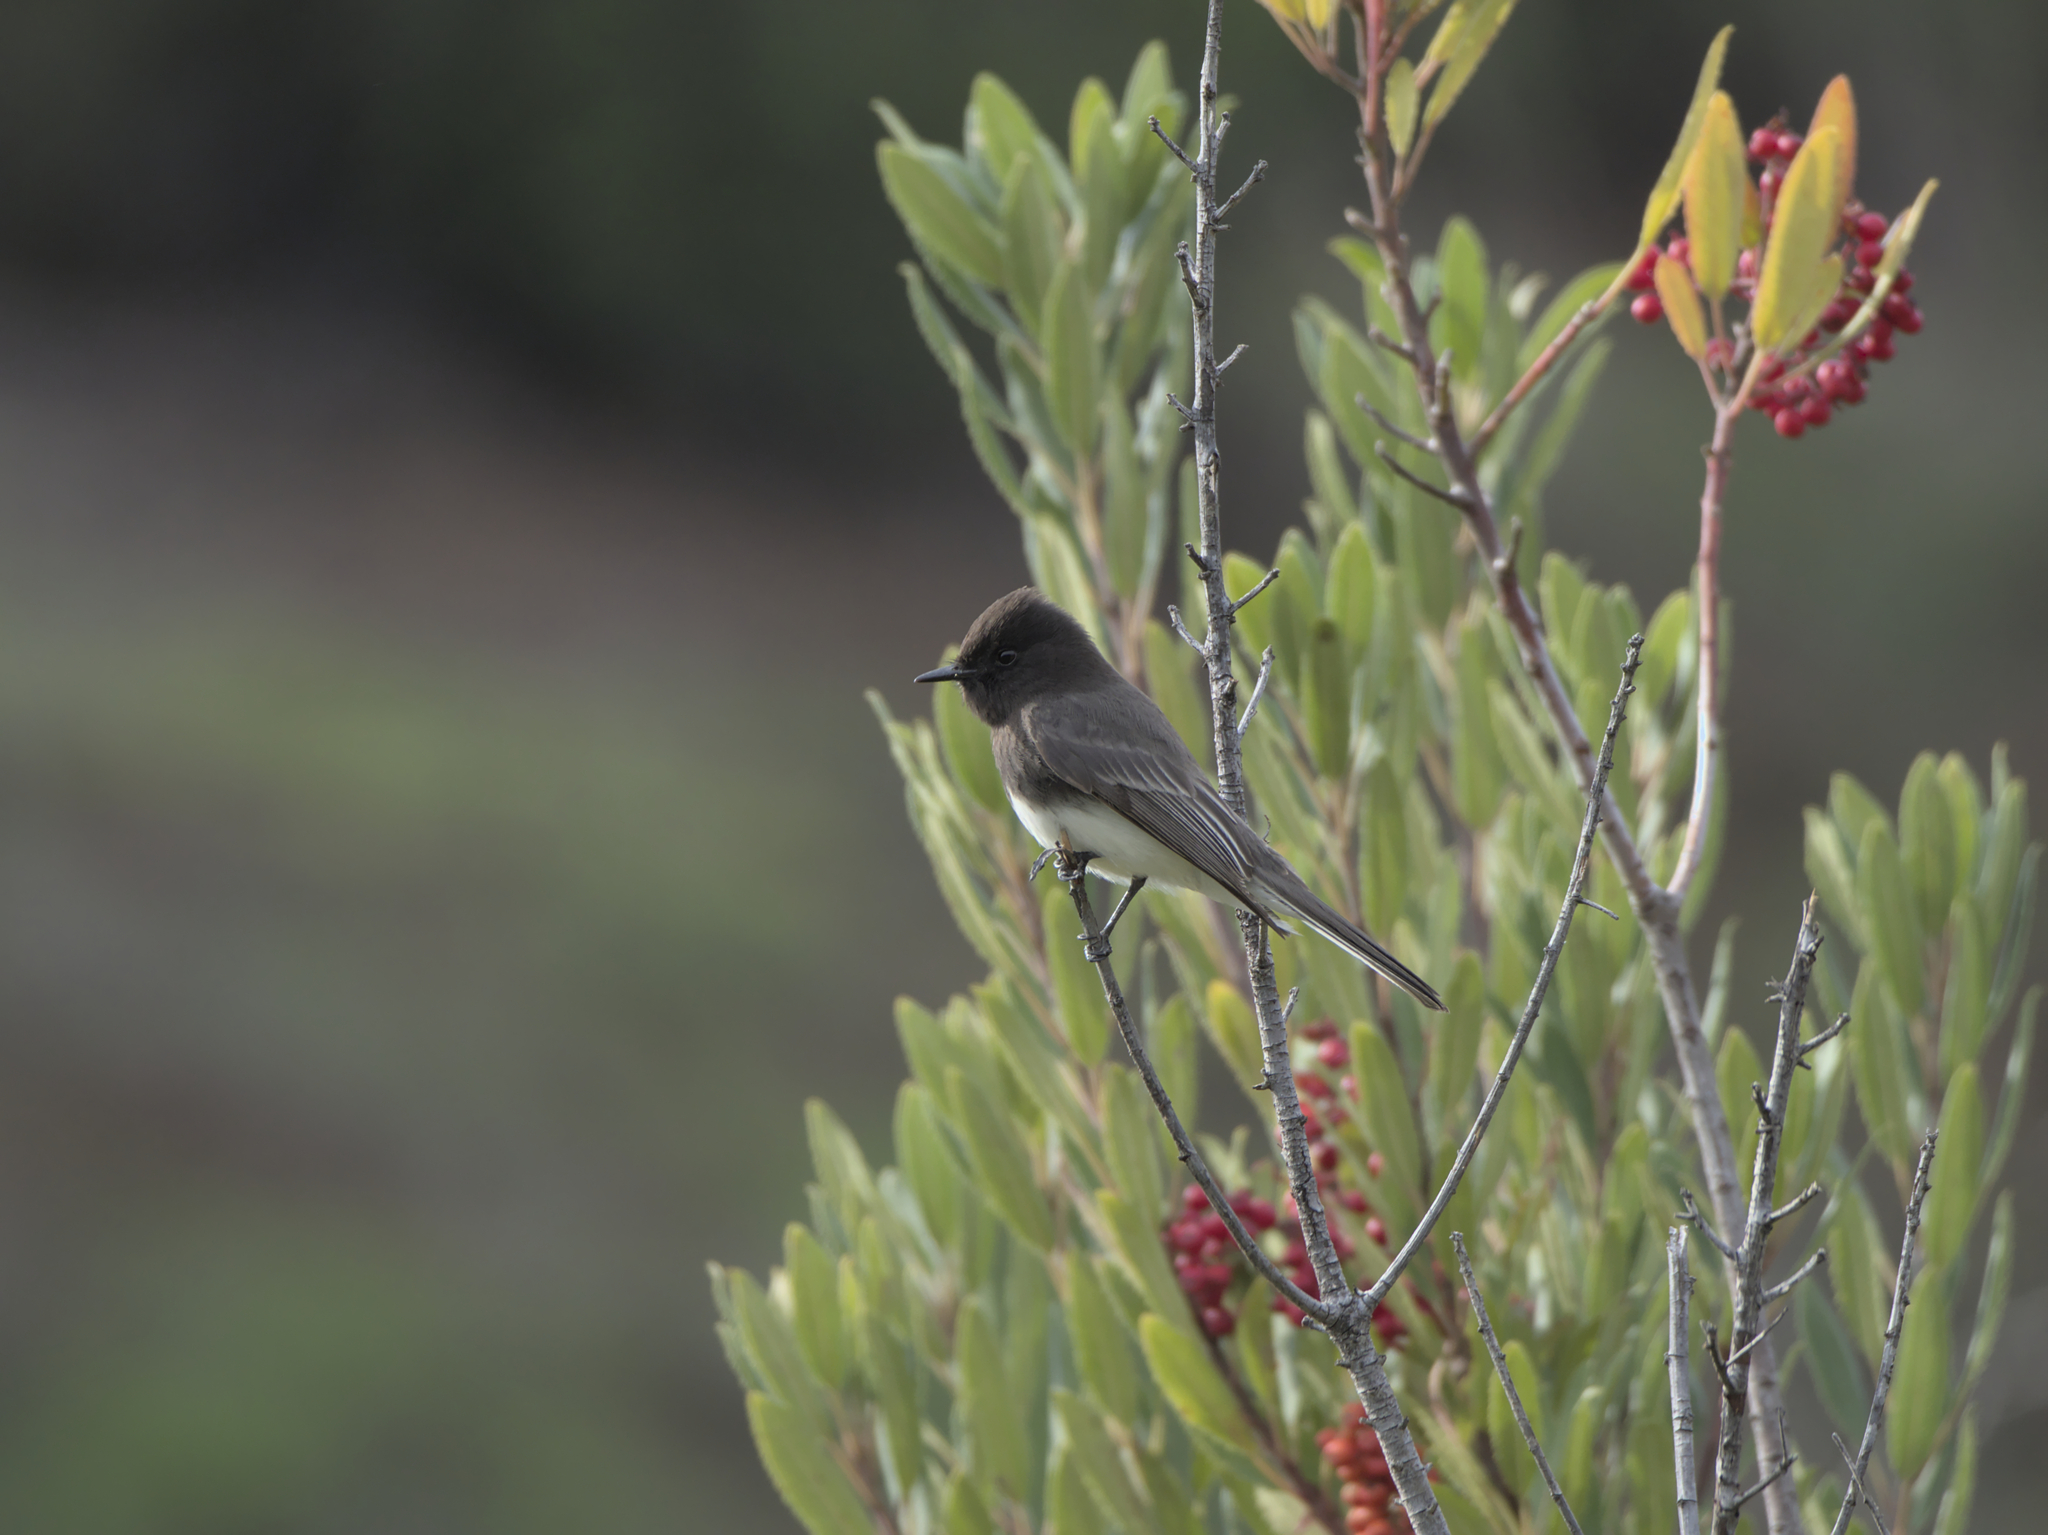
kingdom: Animalia
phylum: Chordata
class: Aves
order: Passeriformes
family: Tyrannidae
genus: Sayornis
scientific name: Sayornis nigricans
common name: Black phoebe
